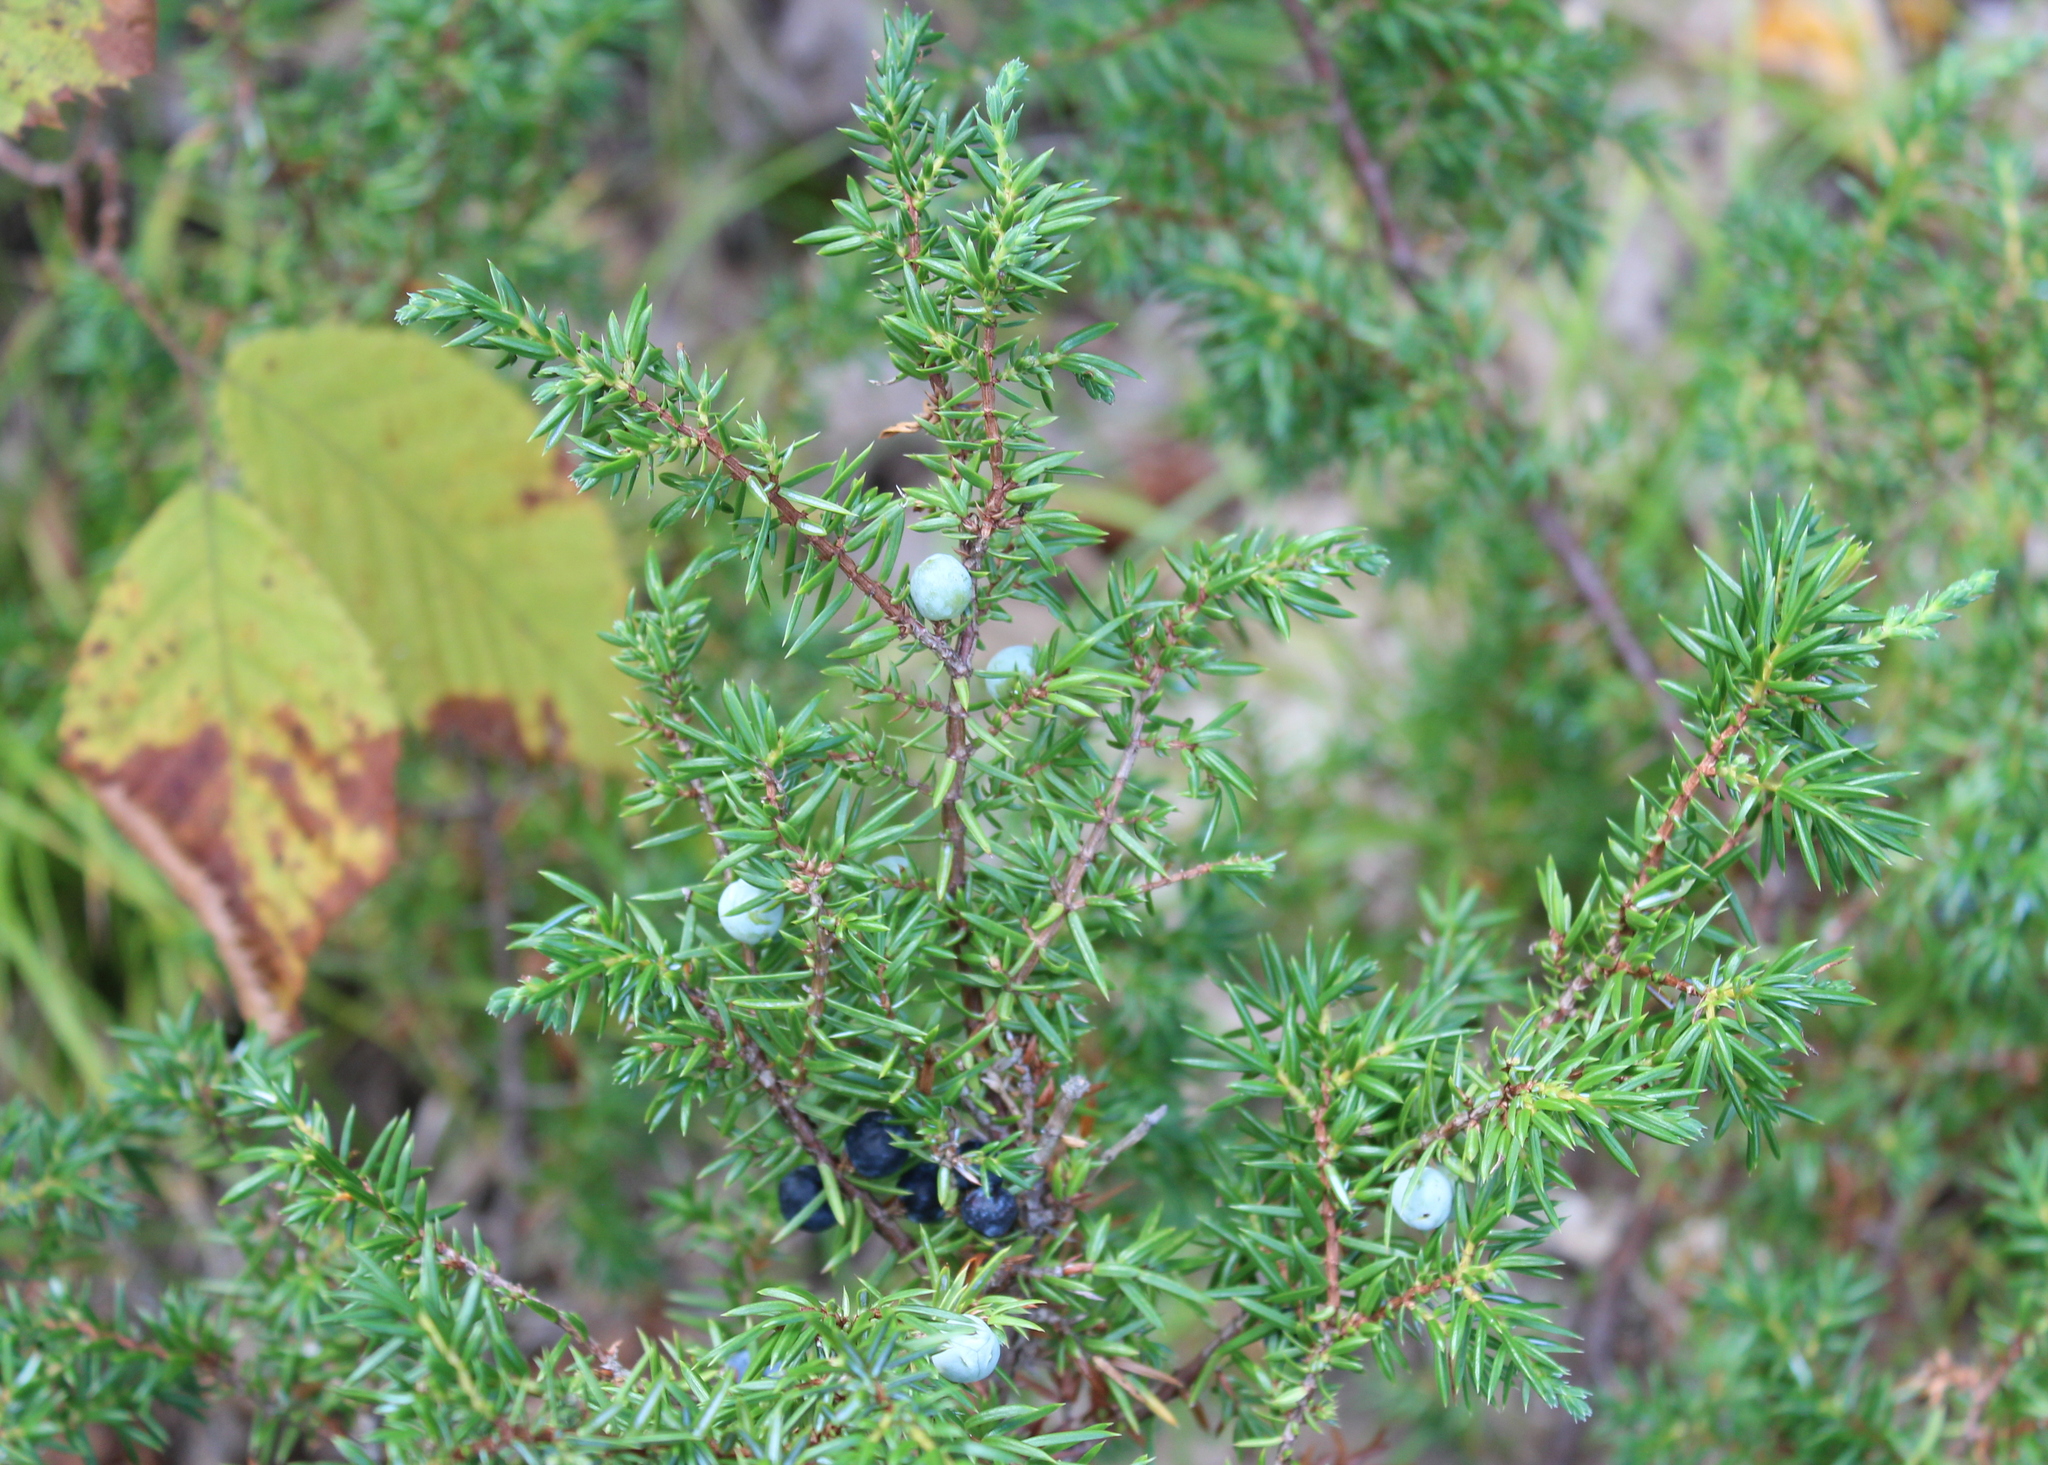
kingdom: Plantae
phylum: Tracheophyta
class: Pinopsida
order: Pinales
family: Cupressaceae
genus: Juniperus
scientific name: Juniperus communis
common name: Common juniper
